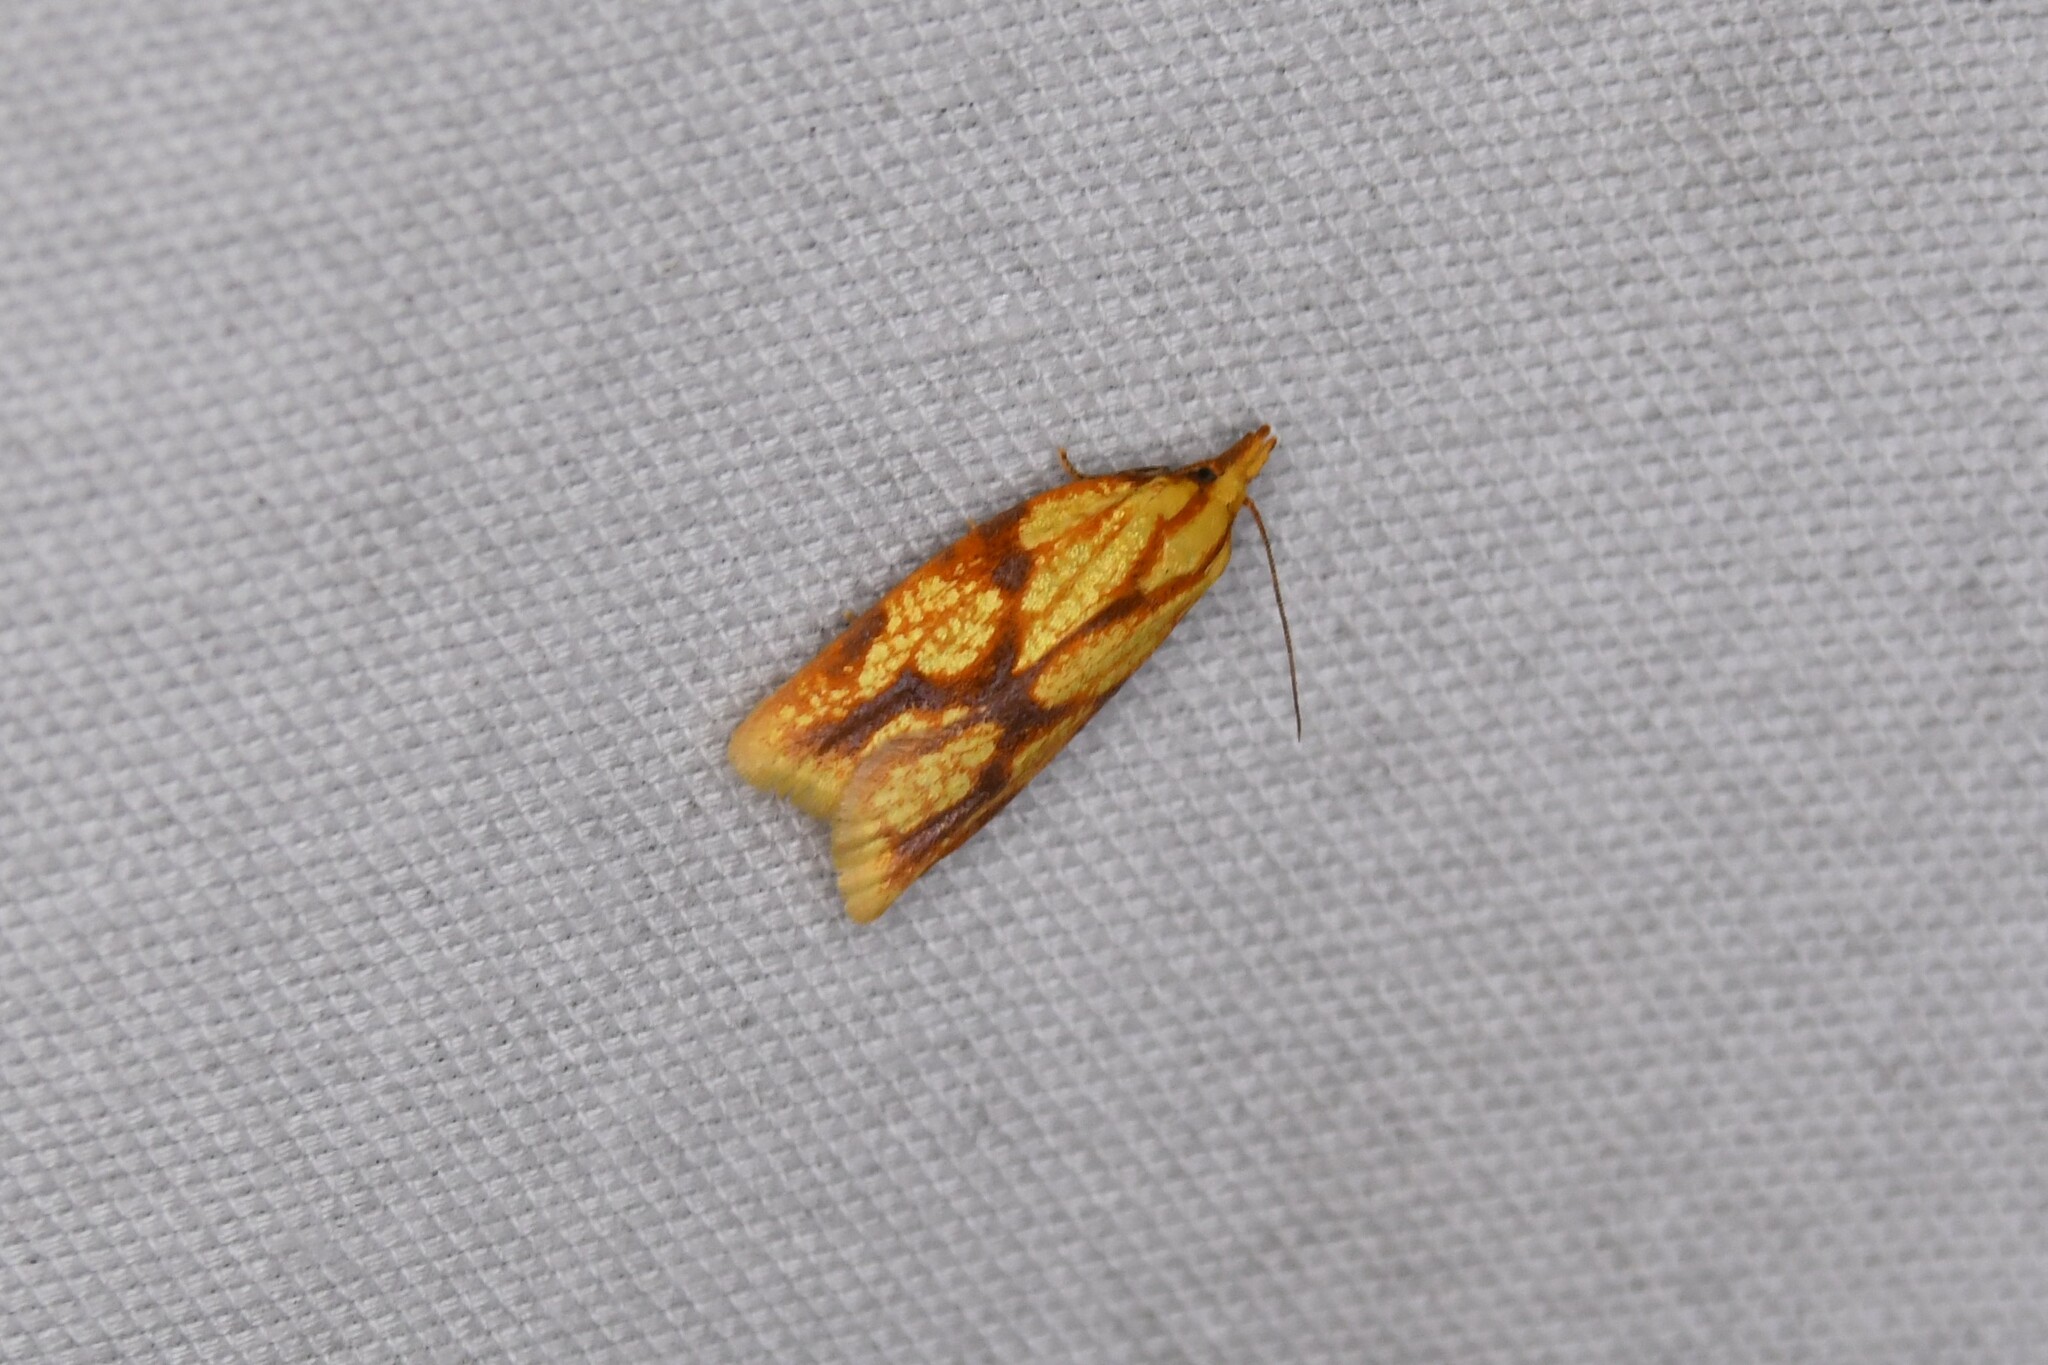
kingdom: Animalia
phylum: Arthropoda
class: Insecta
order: Lepidoptera
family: Tortricidae
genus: Sparganothis
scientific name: Sparganothis sulfureana
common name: Sparganothis fruitworm moth
